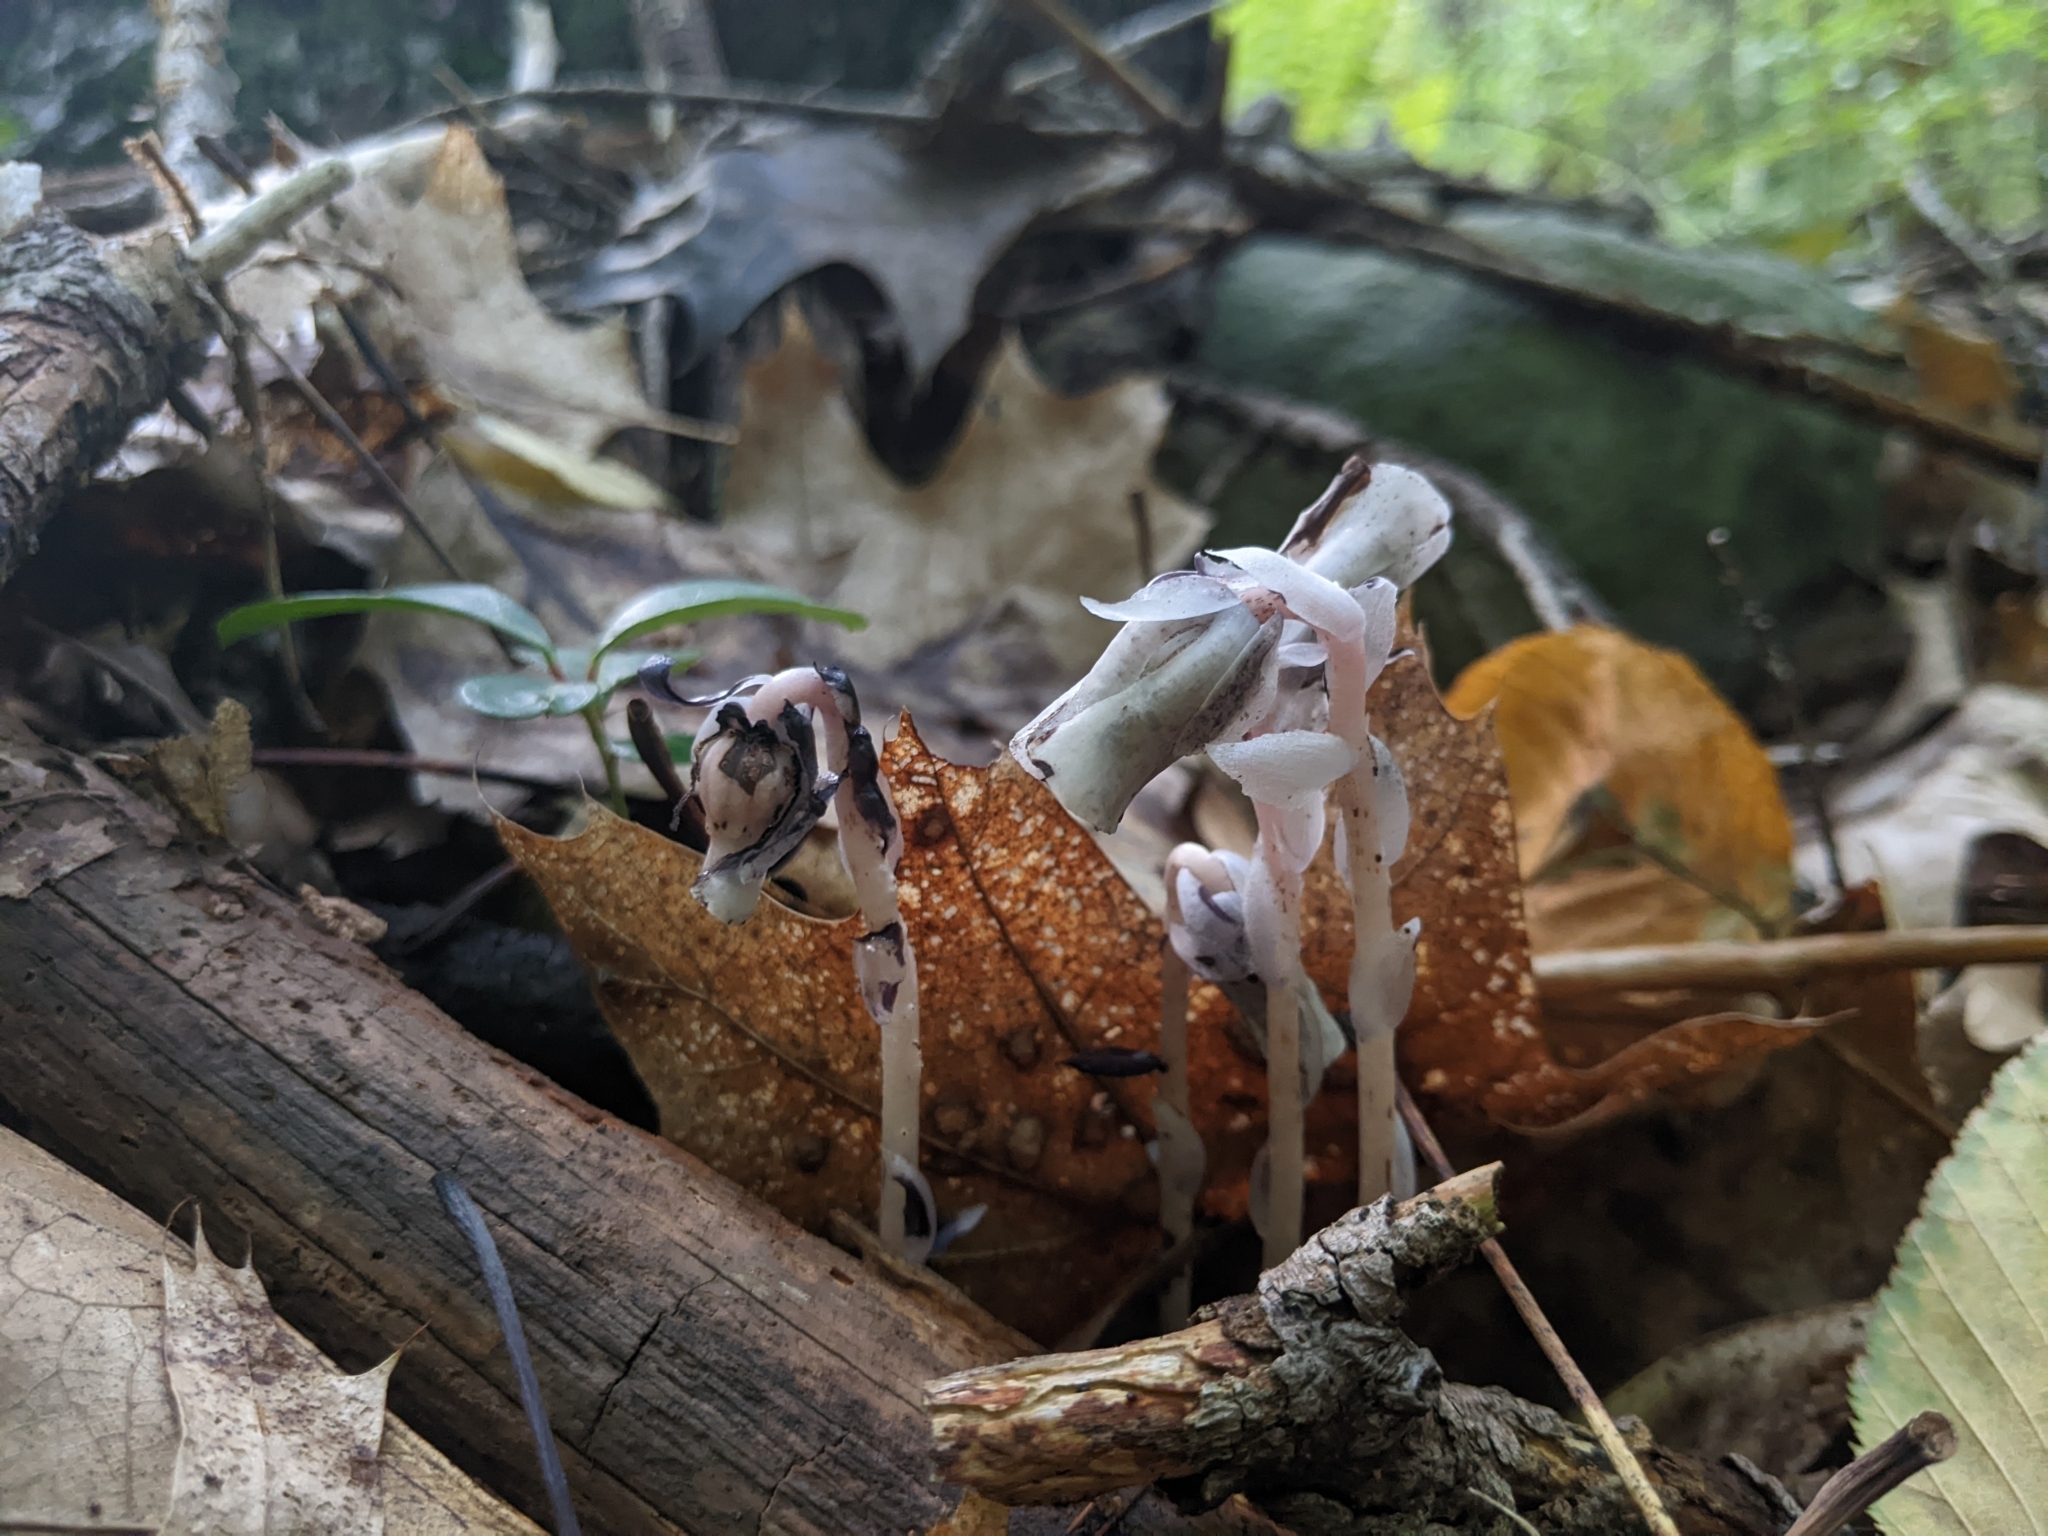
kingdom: Plantae
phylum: Tracheophyta
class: Magnoliopsida
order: Ericales
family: Ericaceae
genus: Monotropa
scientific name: Monotropa uniflora
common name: Convulsion root
